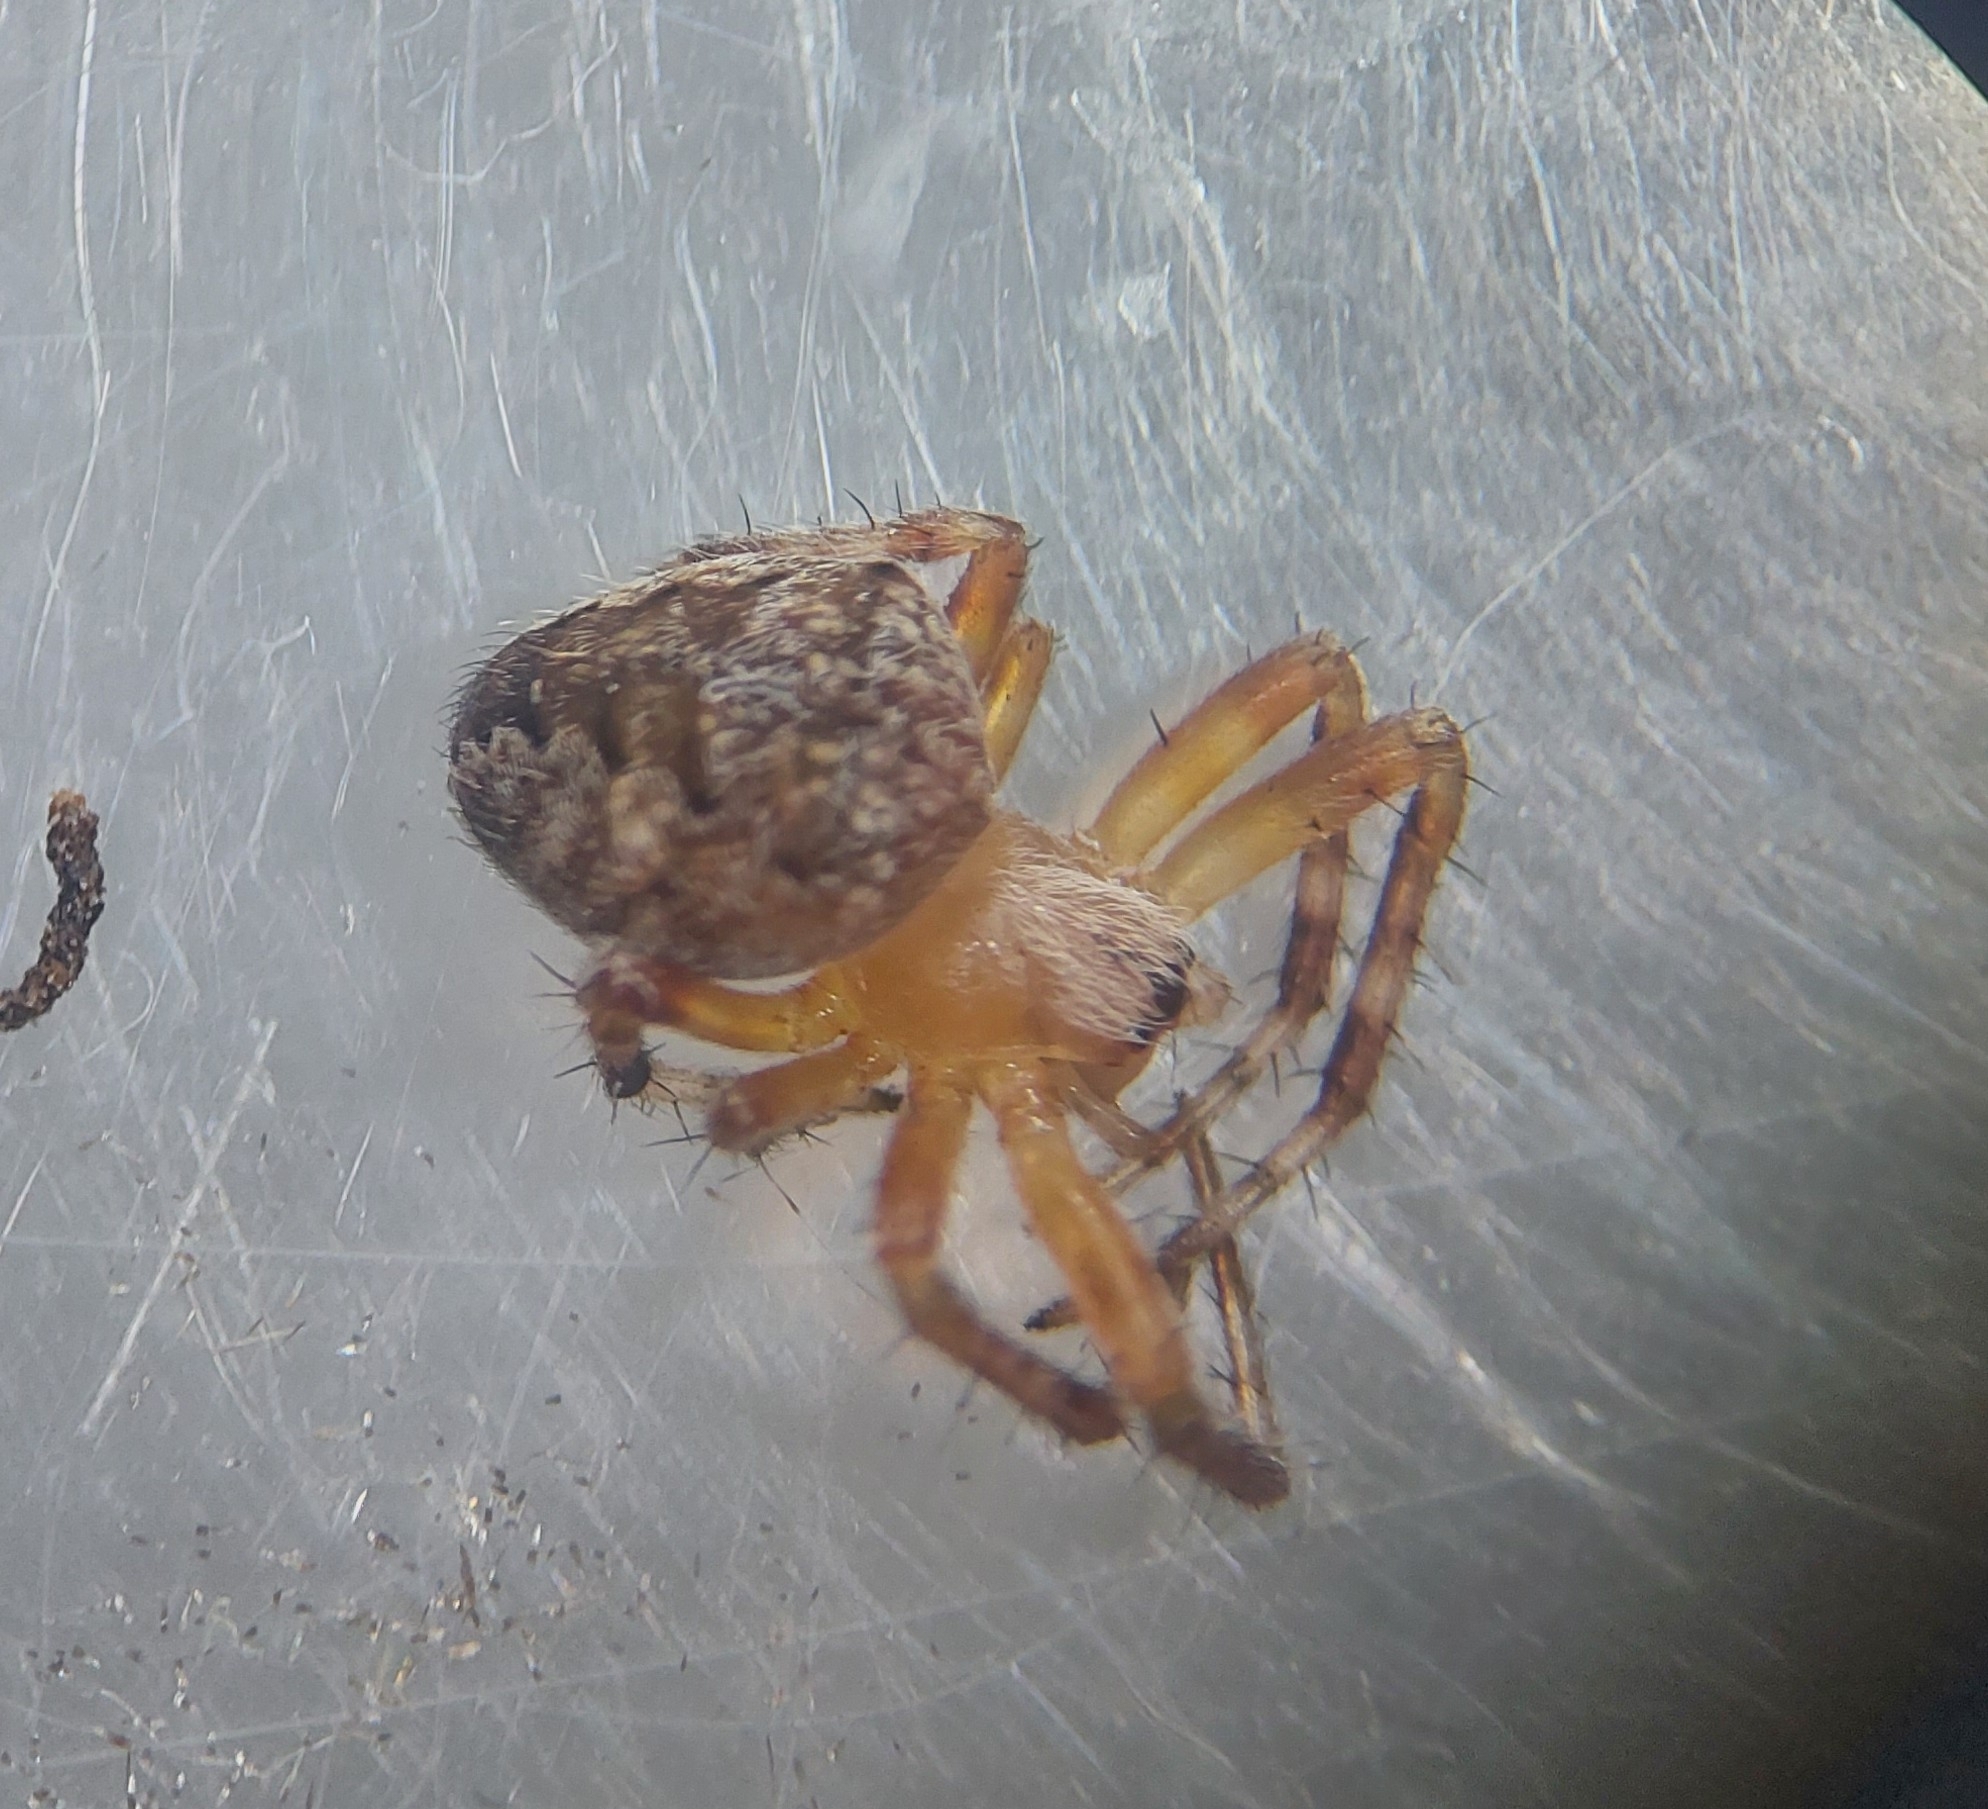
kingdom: Animalia
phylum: Arthropoda
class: Arachnida
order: Araneae
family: Araneidae
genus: Araneus
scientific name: Araneus diadematus
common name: Cross orbweaver
